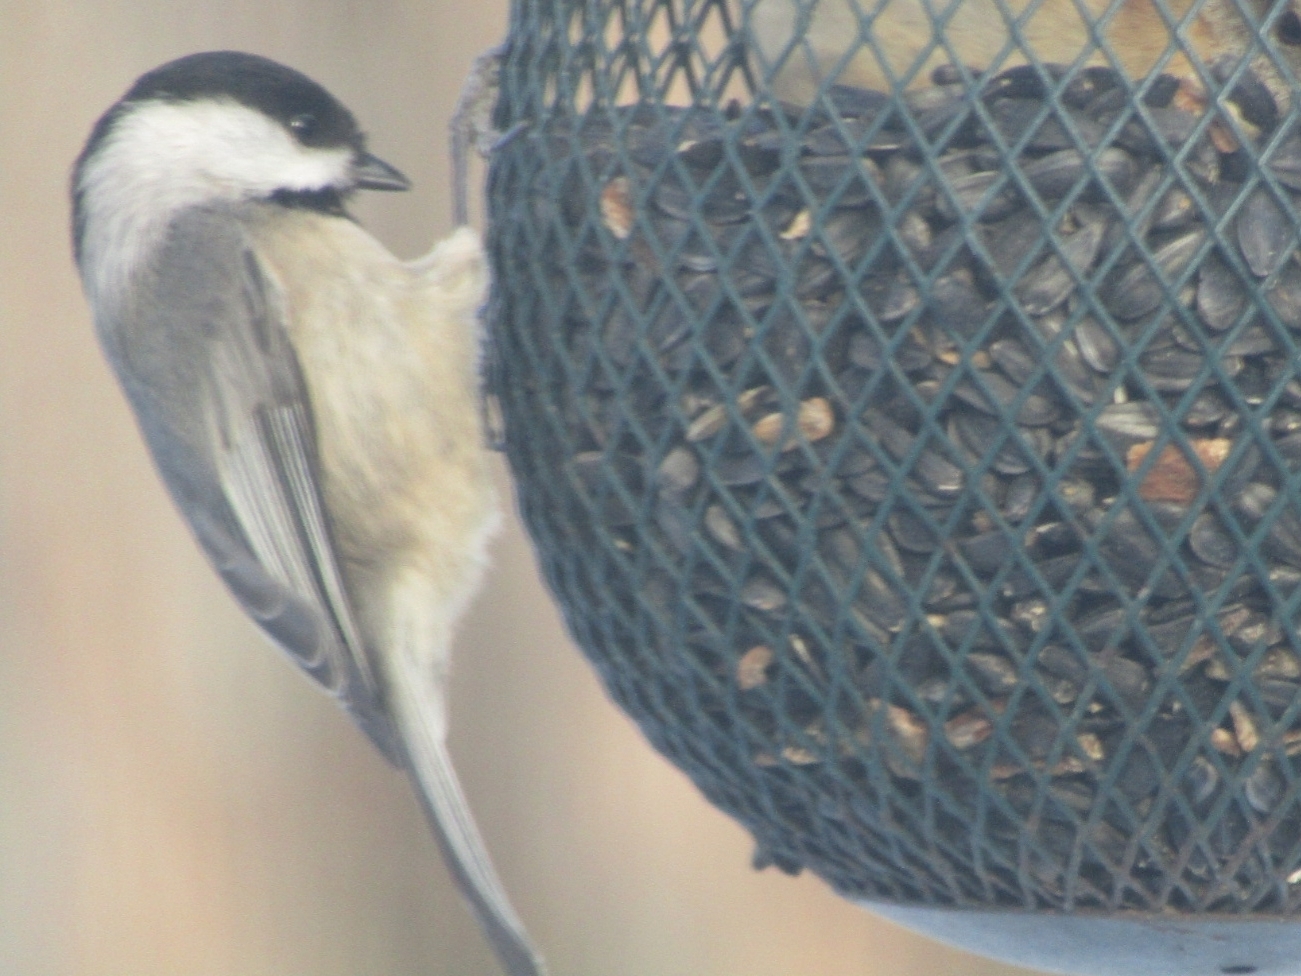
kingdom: Animalia
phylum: Chordata
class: Aves
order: Passeriformes
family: Paridae
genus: Poecile
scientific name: Poecile carolinensis
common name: Carolina chickadee
